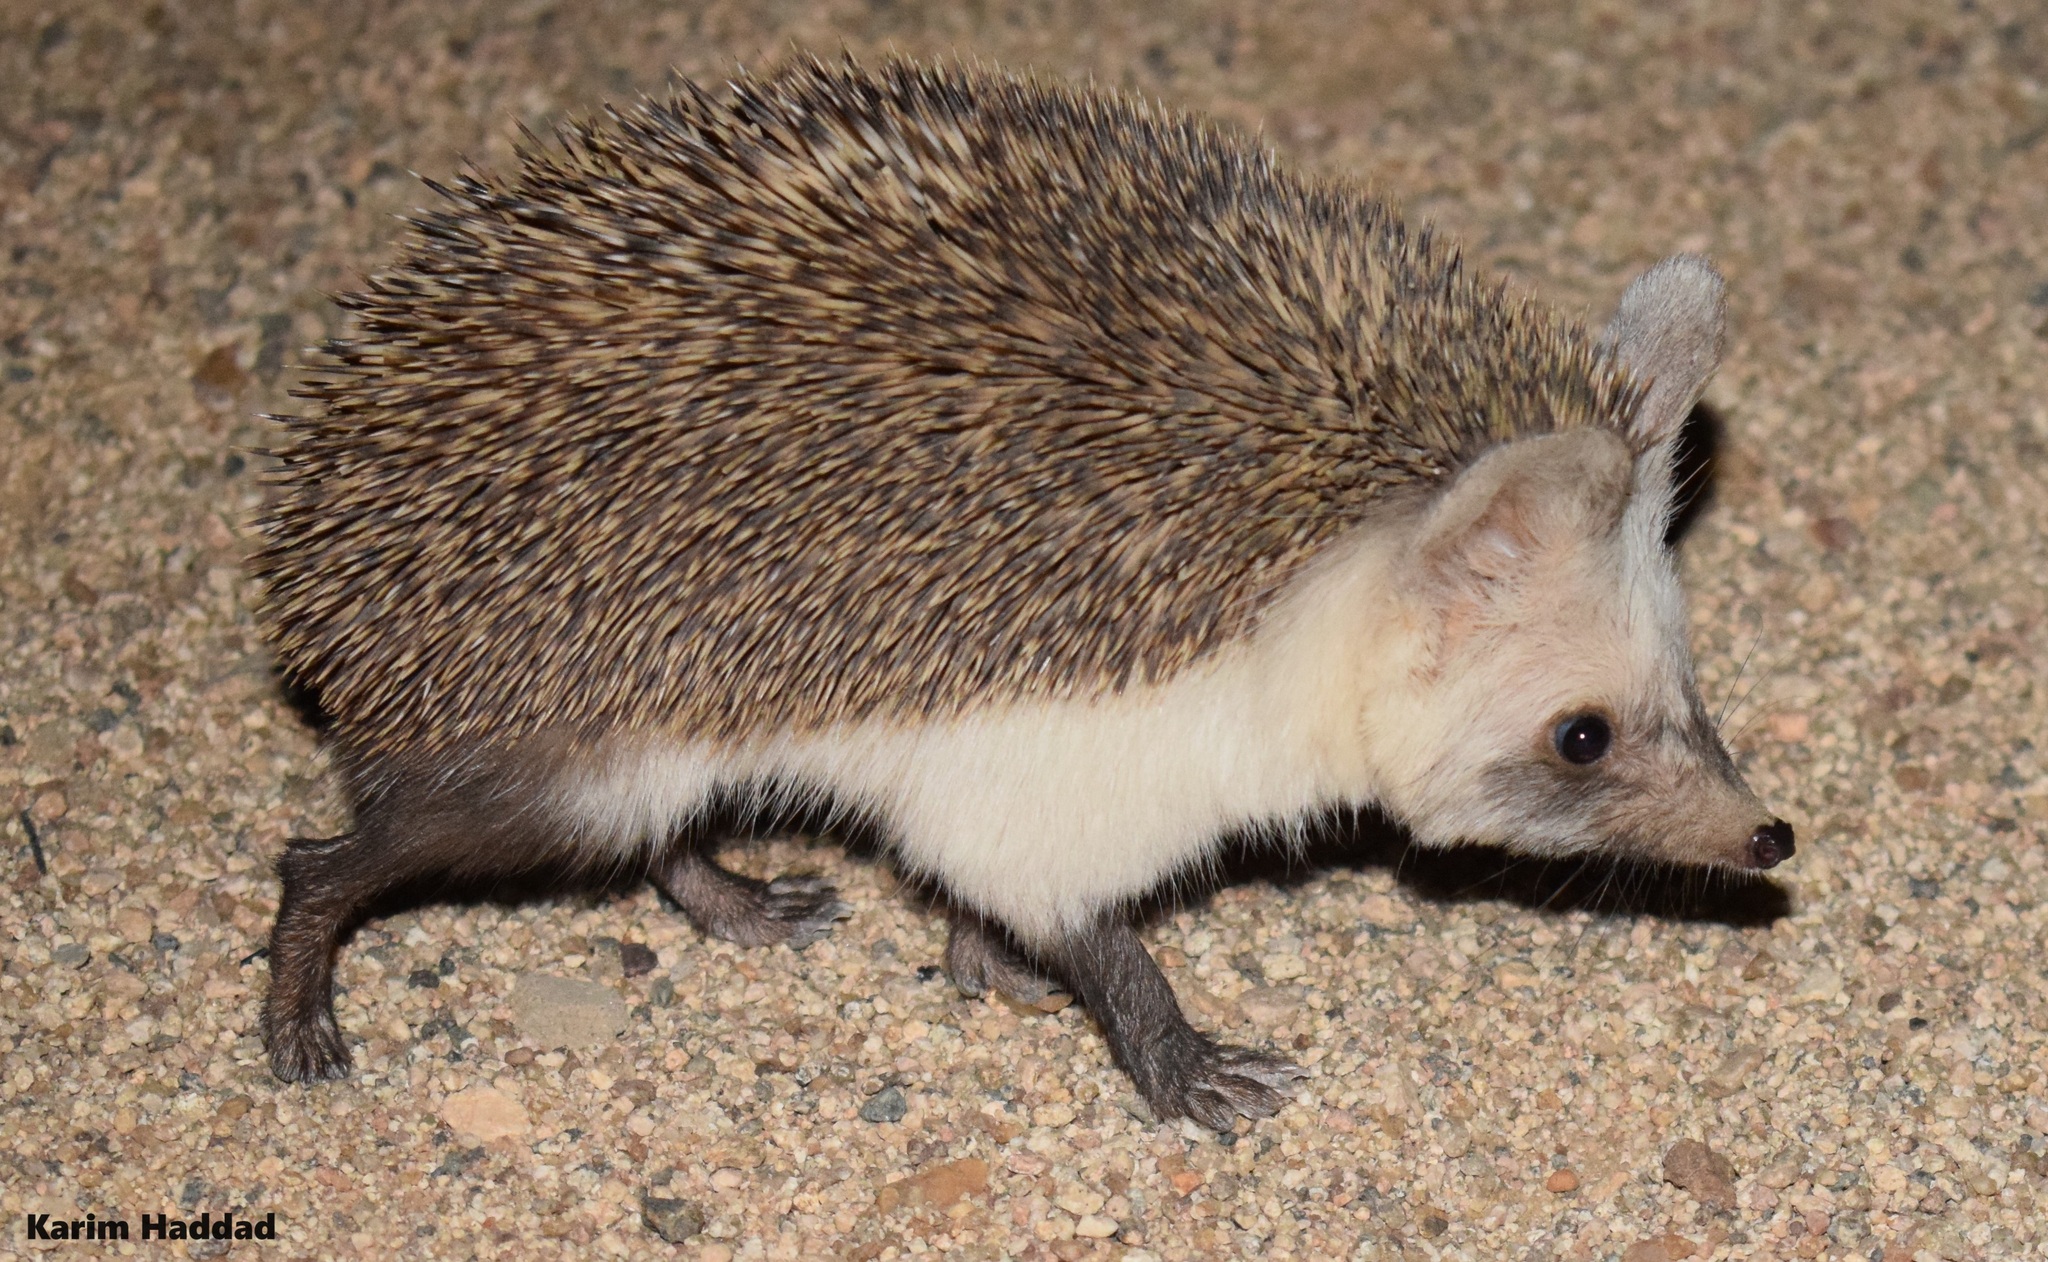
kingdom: Animalia
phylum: Chordata
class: Mammalia
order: Erinaceomorpha
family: Erinaceidae
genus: Paraechinus
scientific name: Paraechinus aethiopicus
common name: Desert hedgehog
